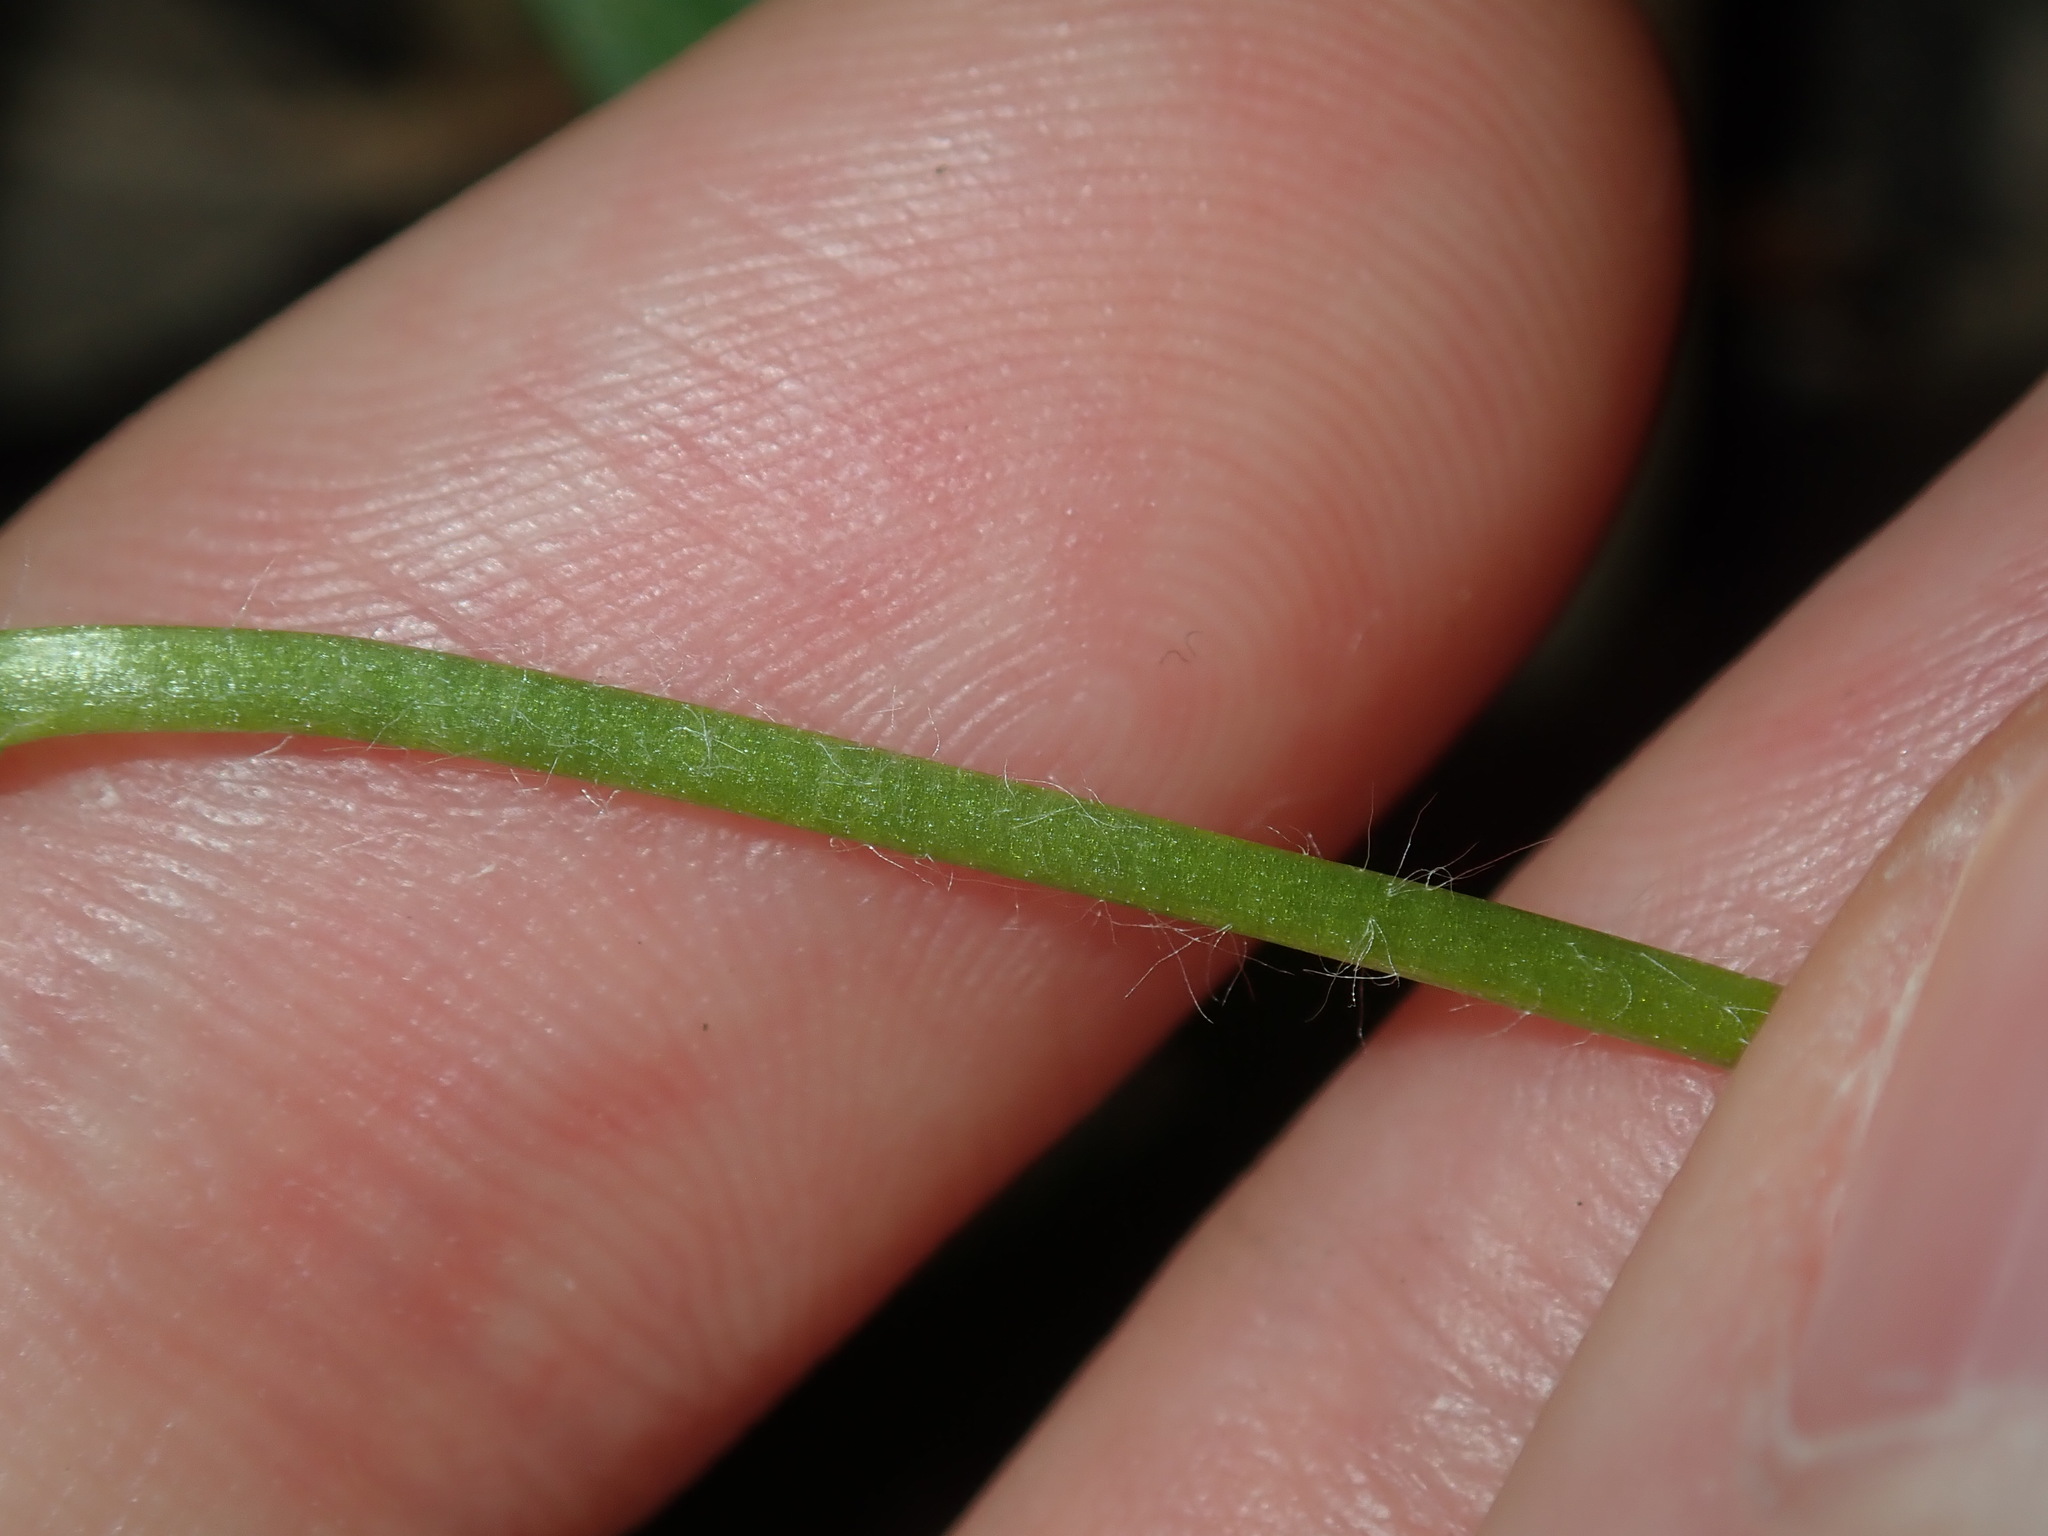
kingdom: Plantae
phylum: Tracheophyta
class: Liliopsida
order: Asparagales
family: Hypoxidaceae
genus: Hypoxis
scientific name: Hypoxis hygrometrica
